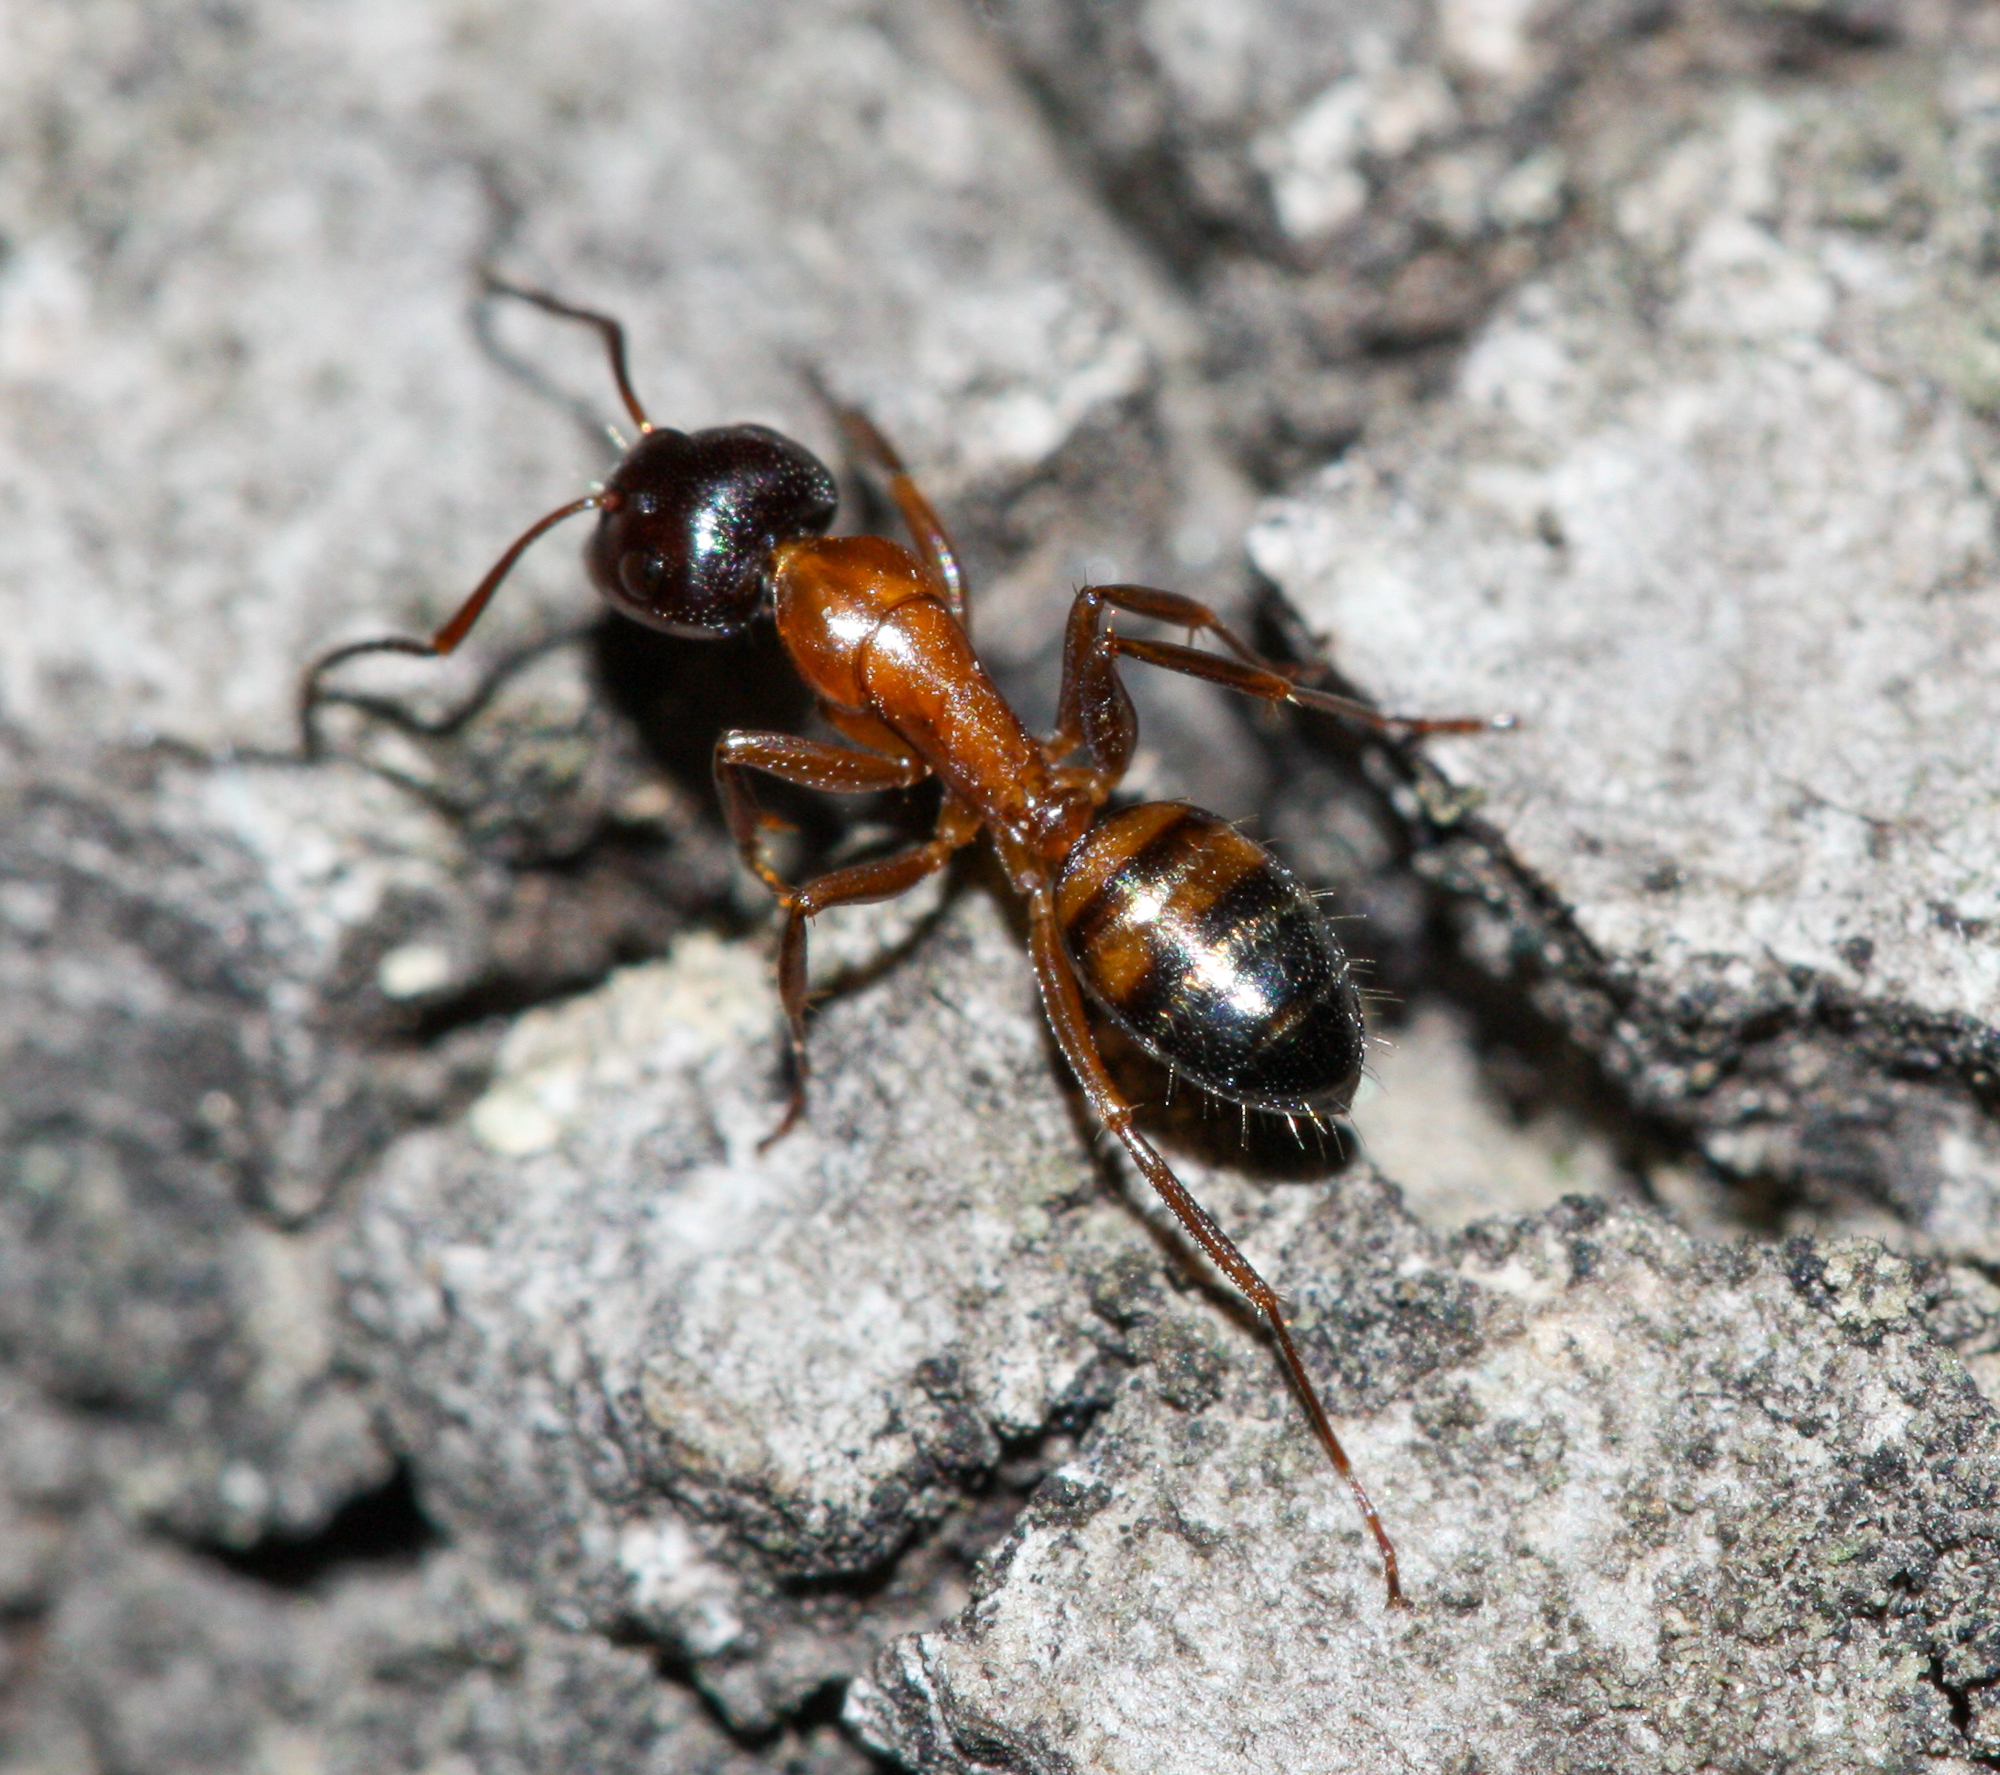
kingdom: Animalia
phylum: Arthropoda
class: Insecta
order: Hymenoptera
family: Formicidae
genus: Camponotus
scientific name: Camponotus essigi
